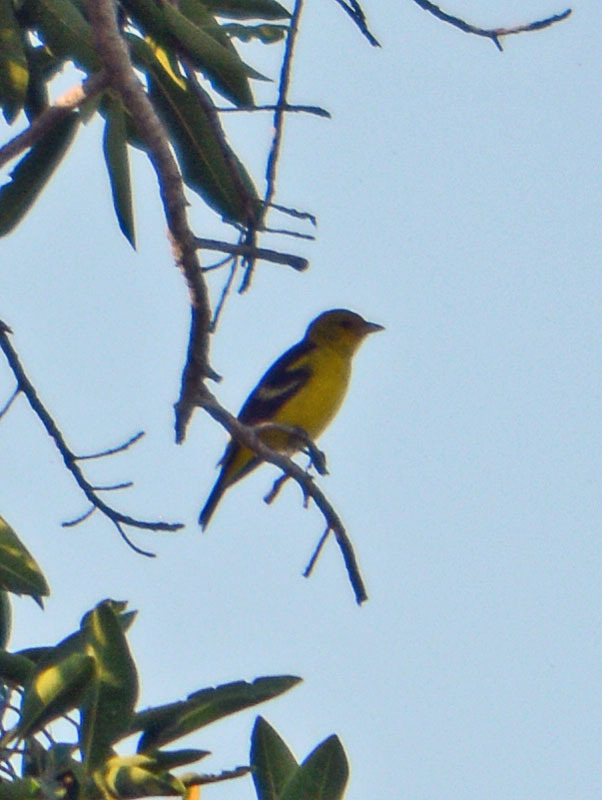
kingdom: Animalia
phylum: Chordata
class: Aves
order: Passeriformes
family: Cardinalidae
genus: Piranga
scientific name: Piranga ludoviciana
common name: Western tanager
